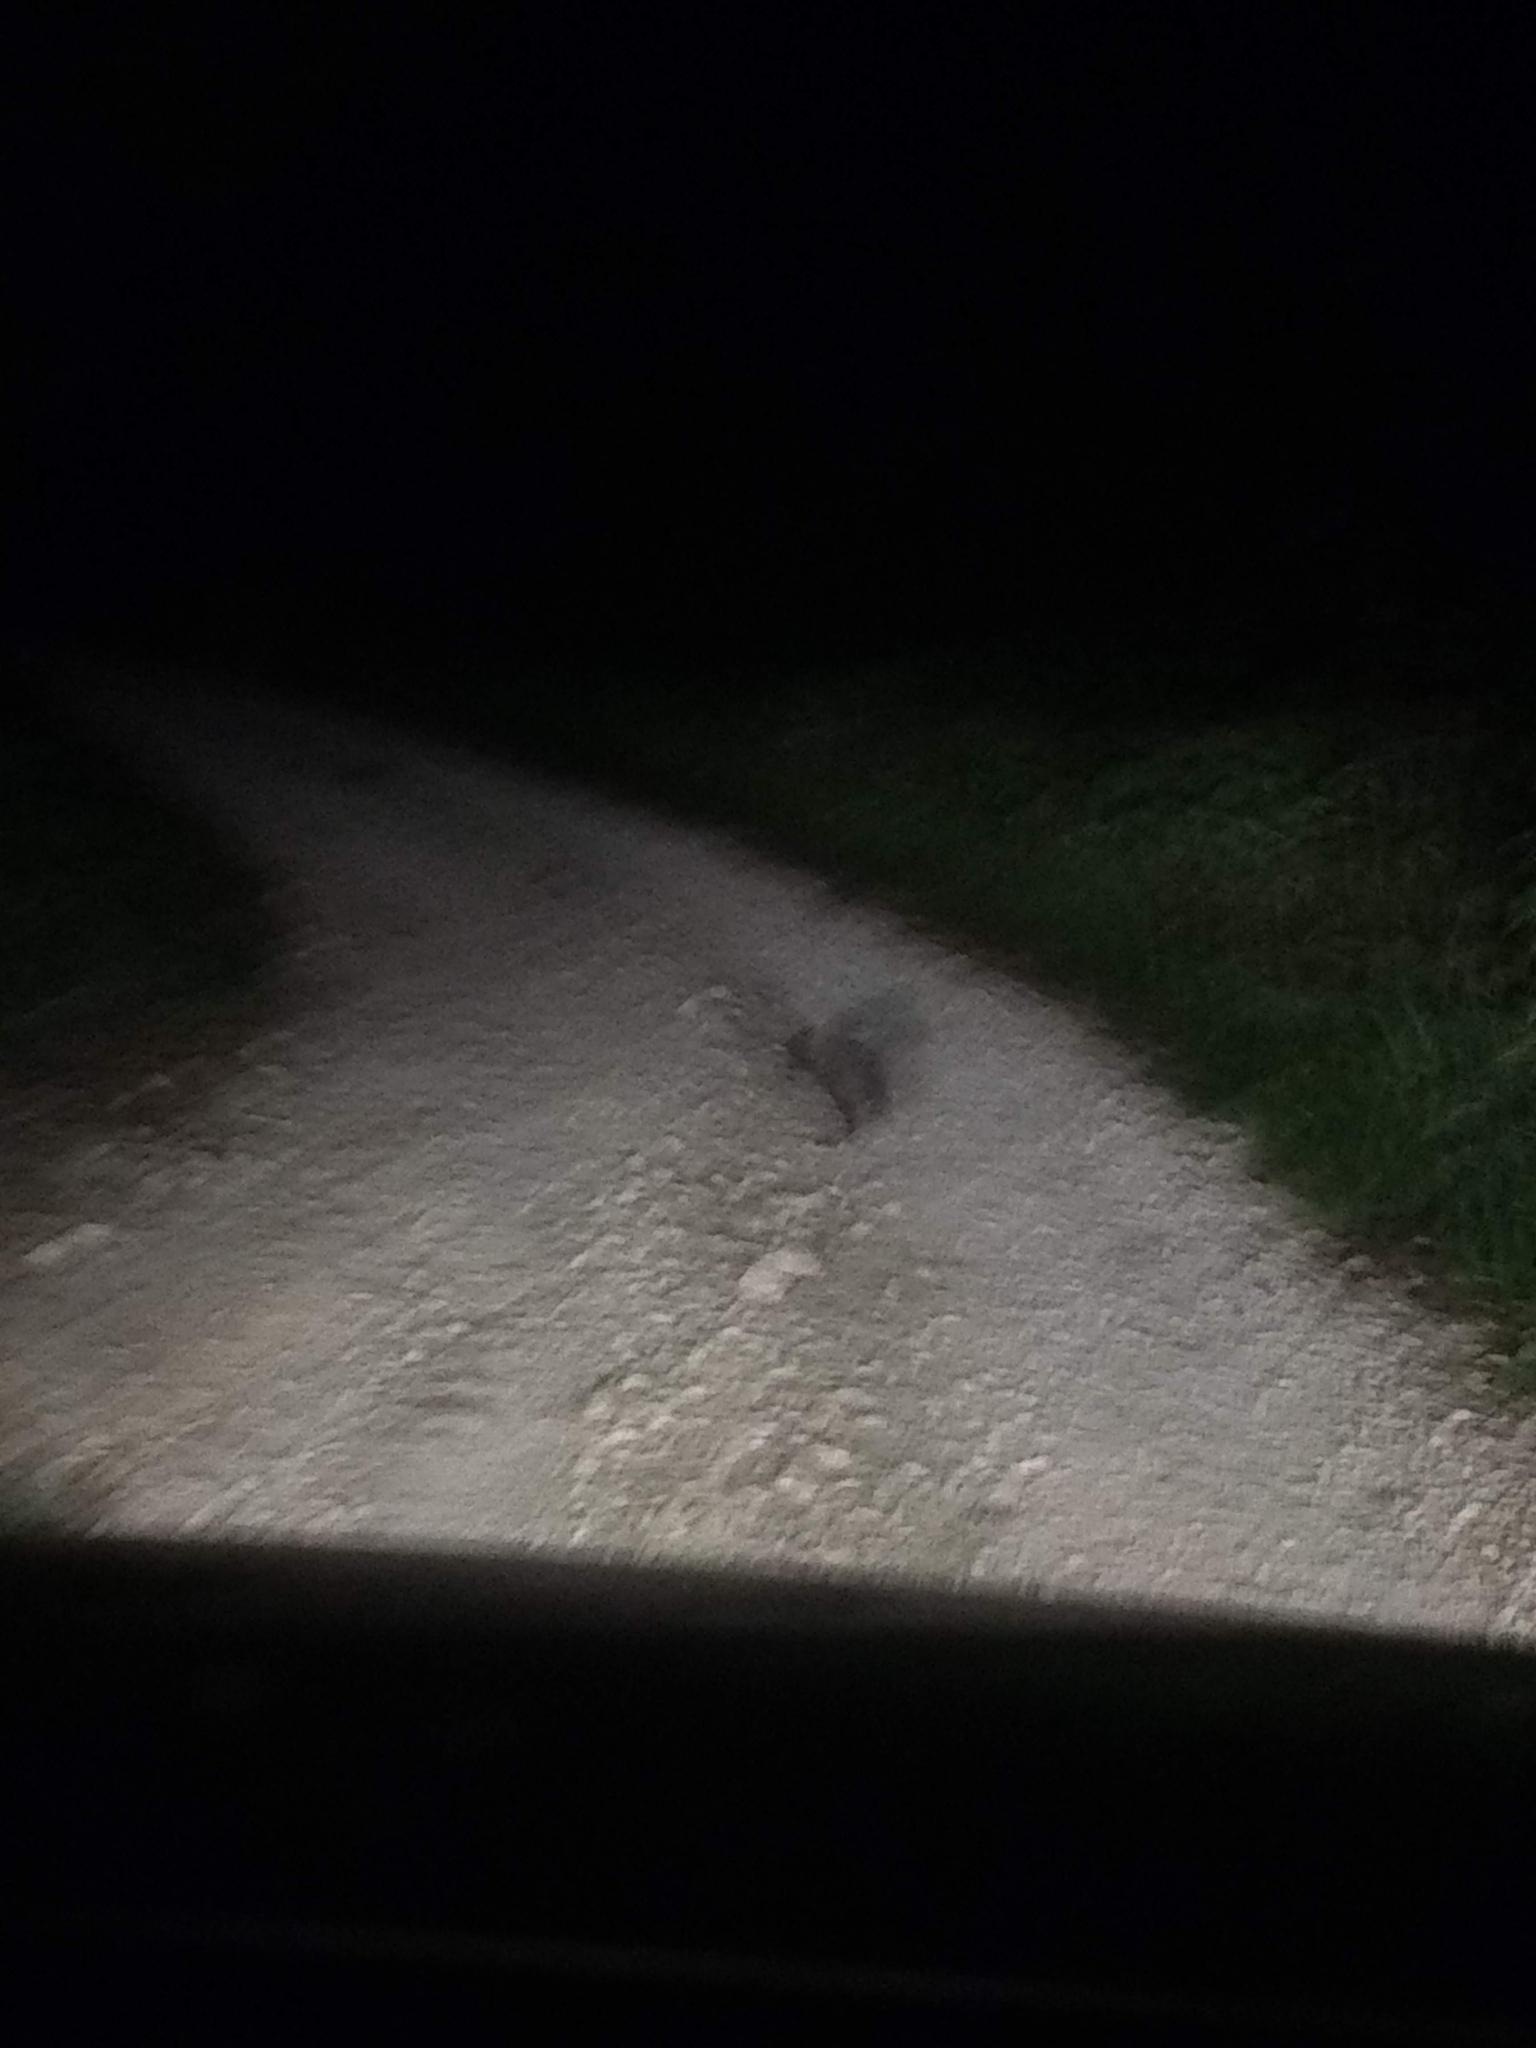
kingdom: Animalia
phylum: Chordata
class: Mammalia
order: Carnivora
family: Canidae
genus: Urocyon
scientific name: Urocyon cinereoargenteus
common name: Gray fox
